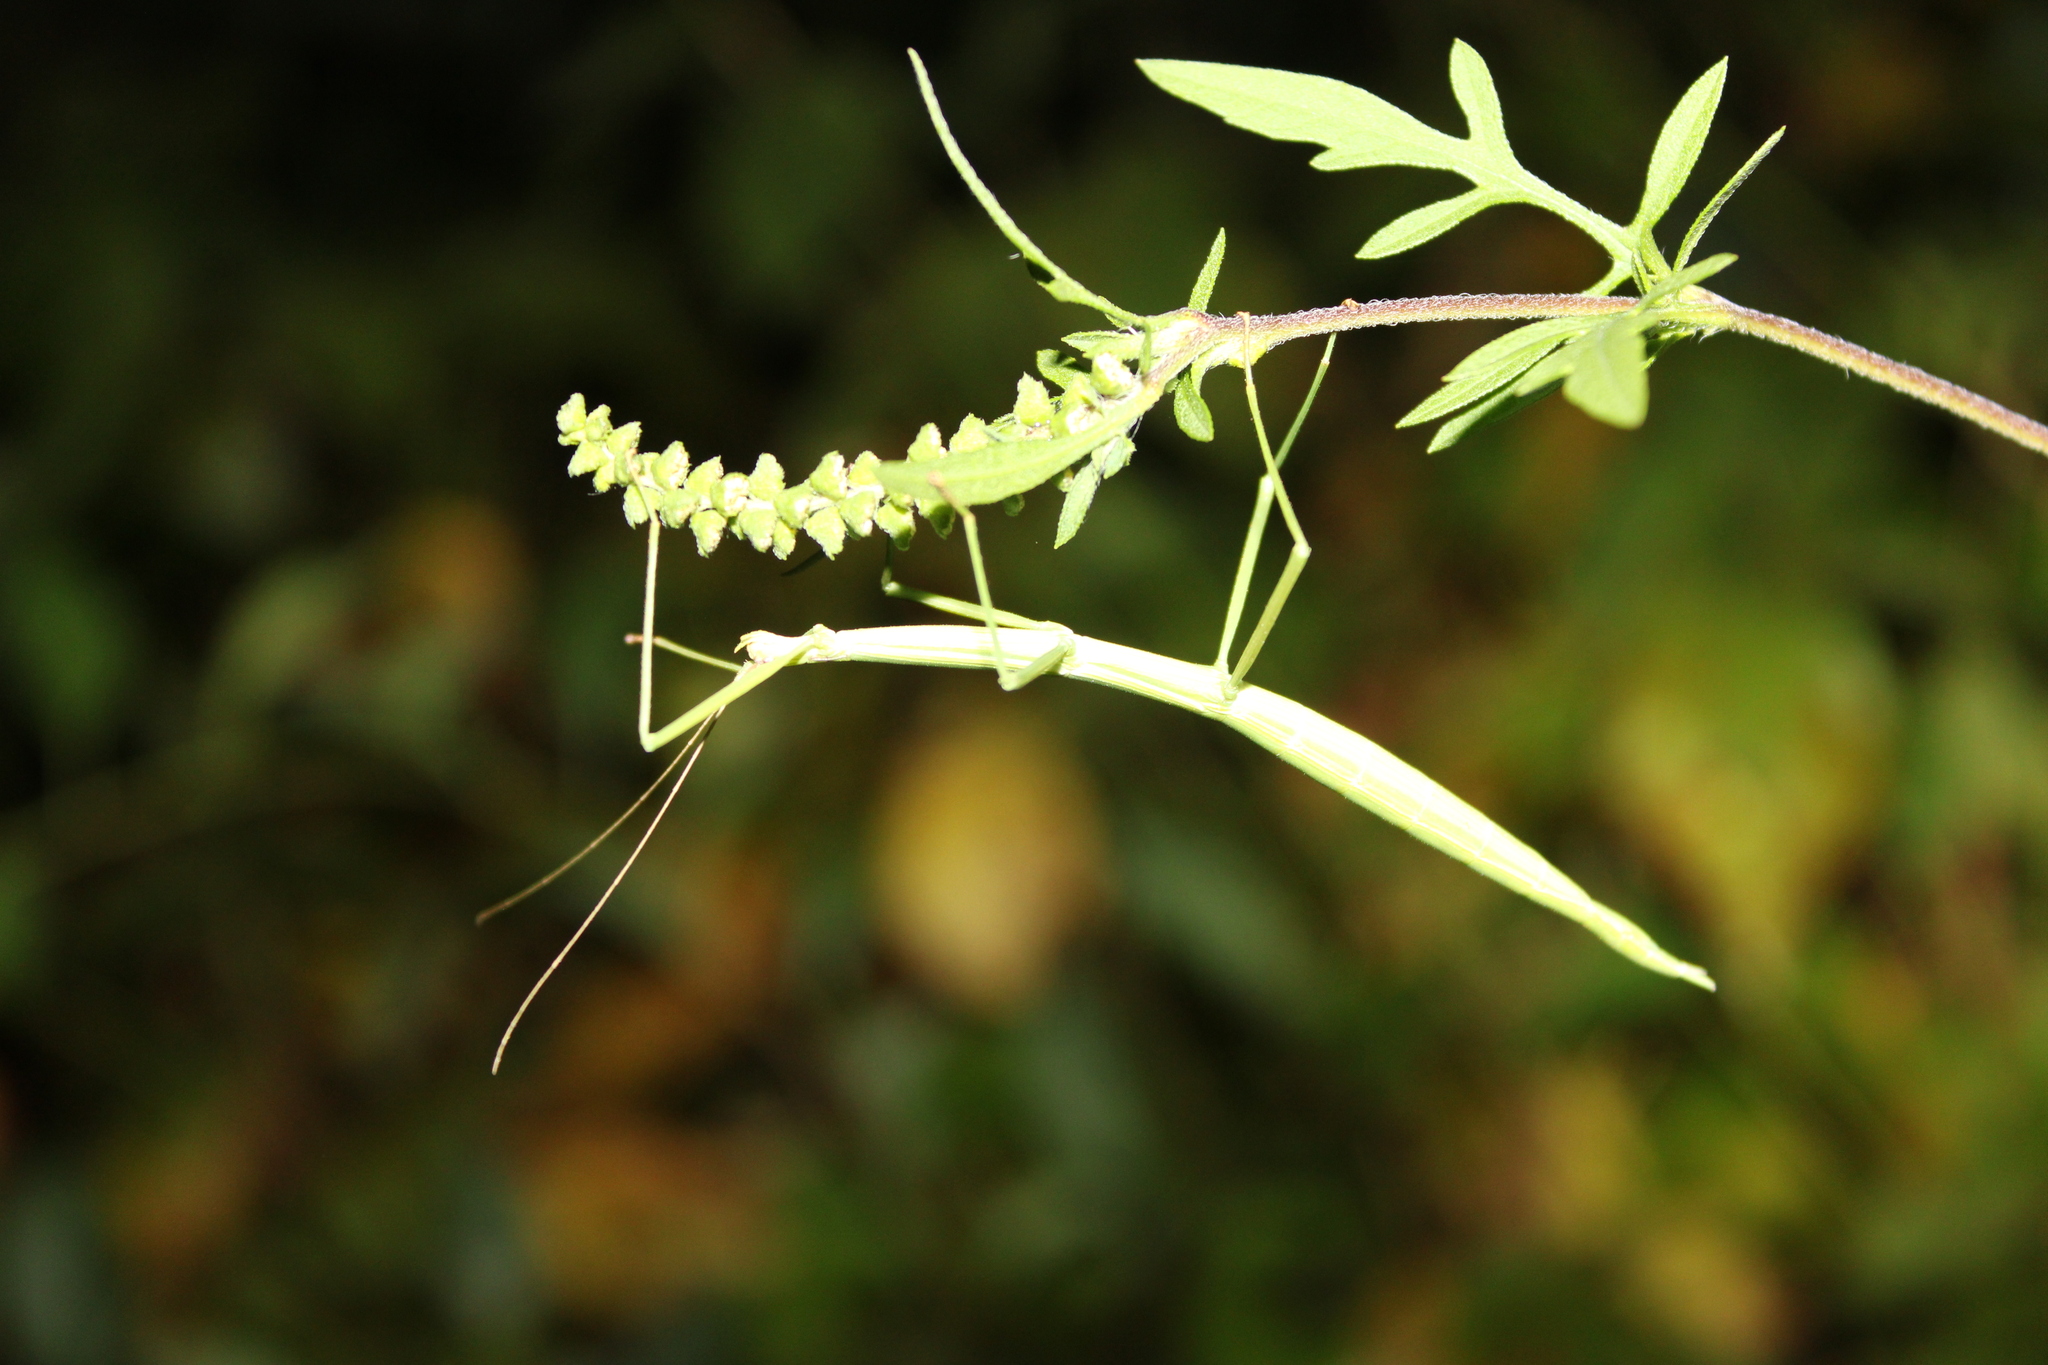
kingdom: Animalia
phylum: Arthropoda
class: Insecta
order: Phasmida
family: Diapheromeridae
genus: Manomera
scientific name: Manomera blatchleyi
